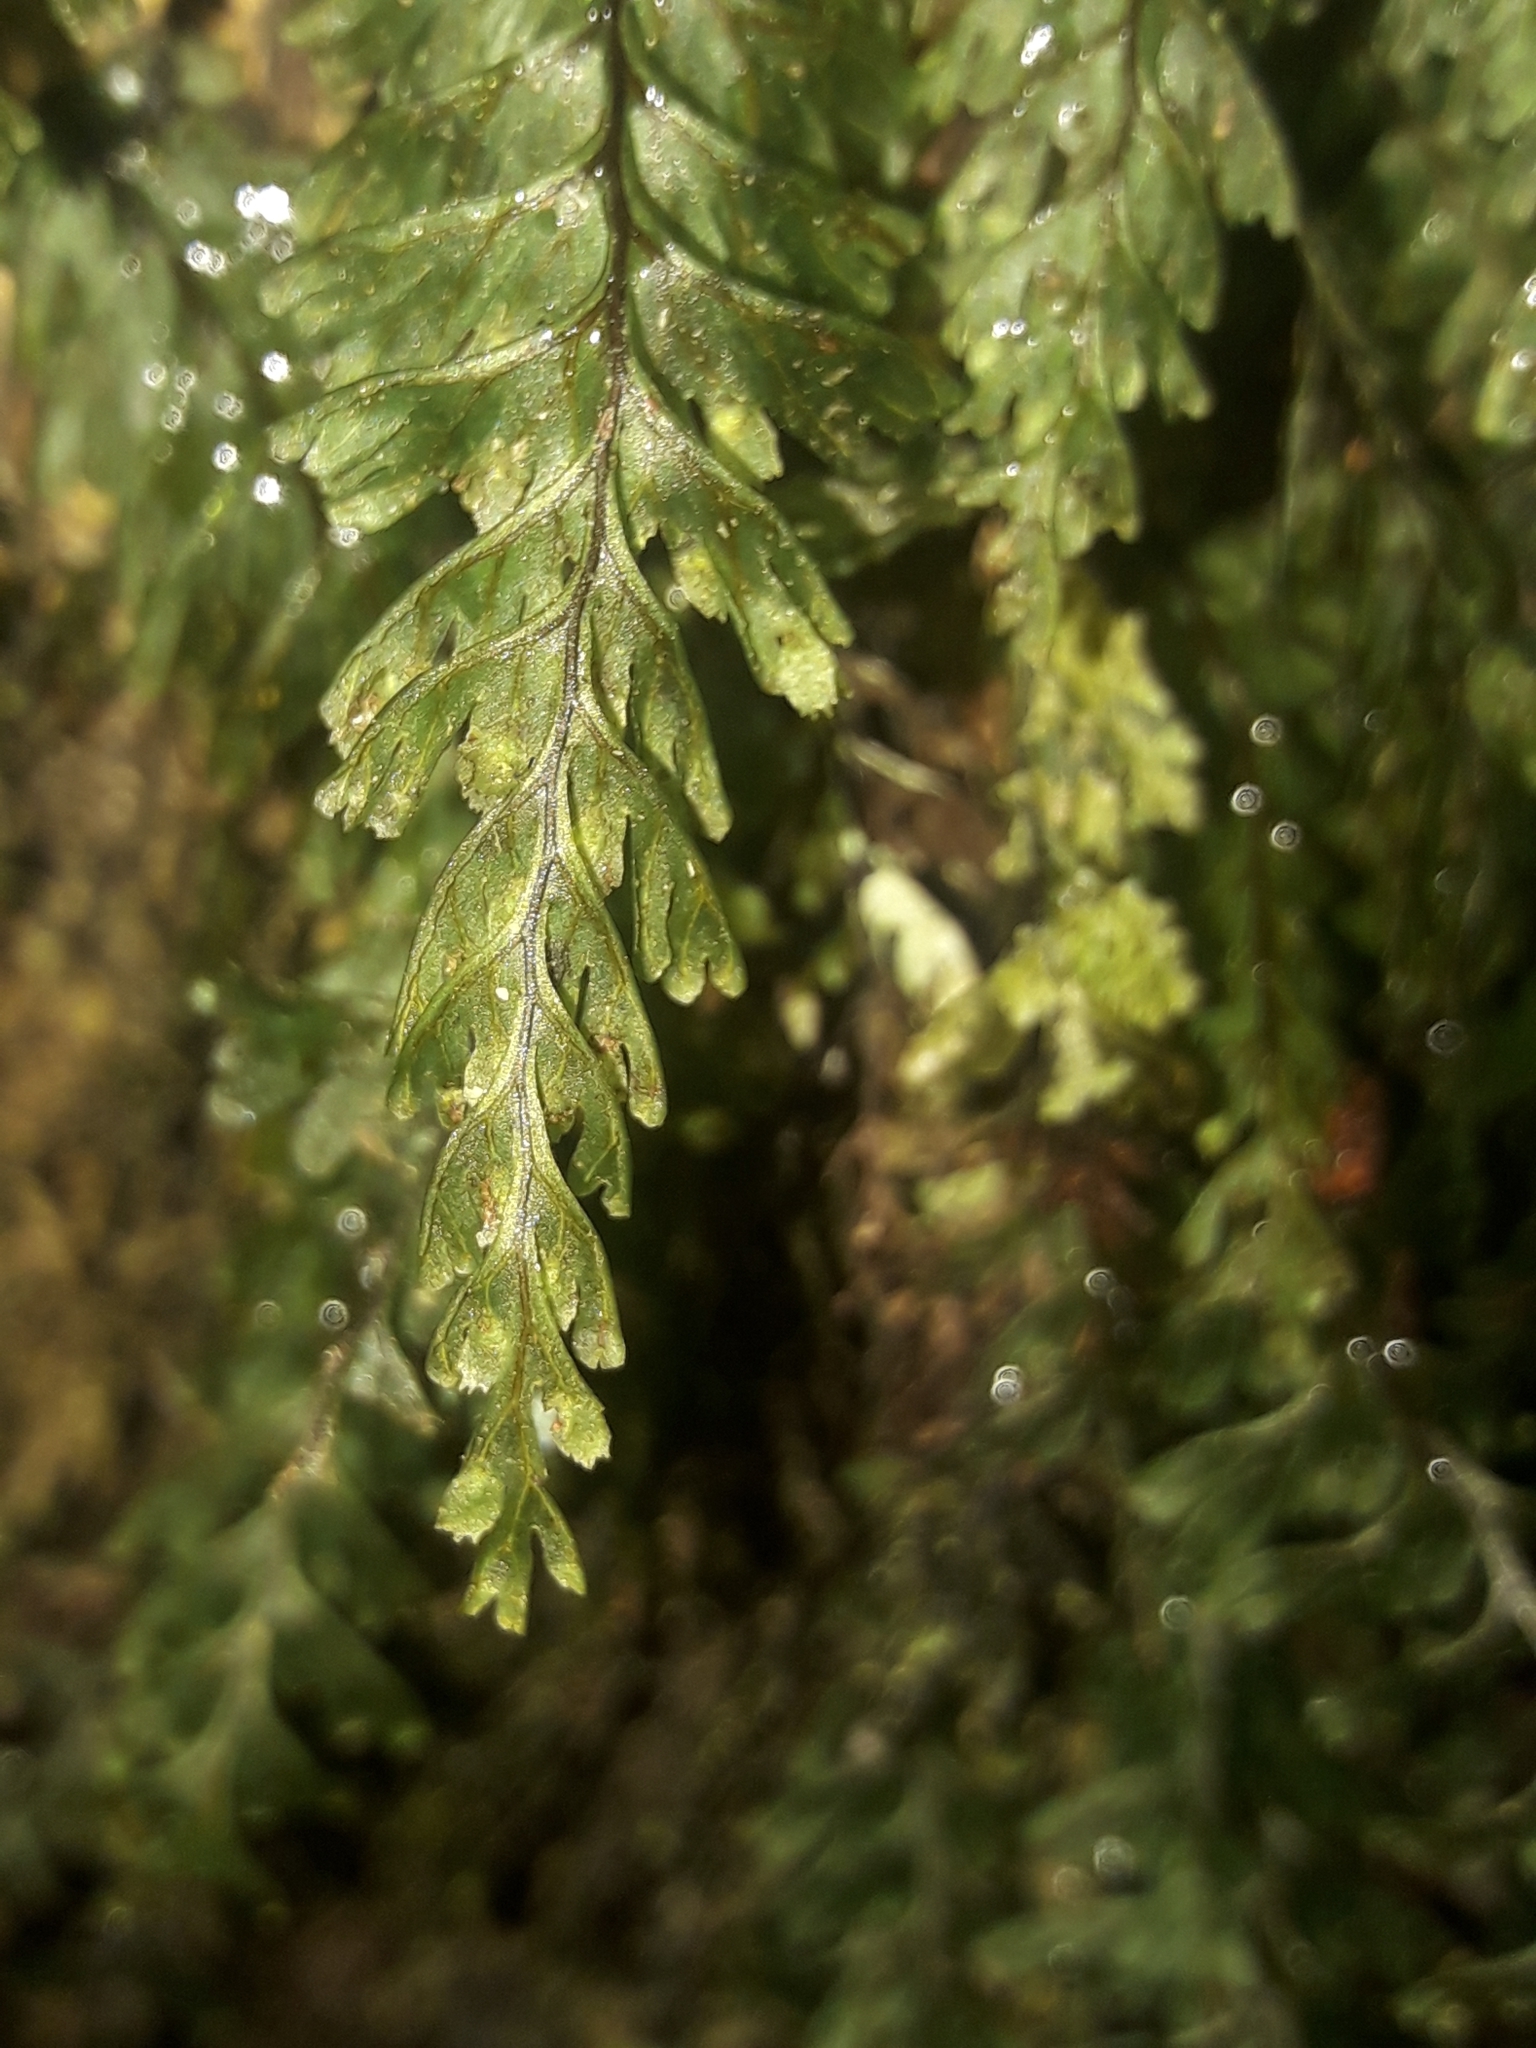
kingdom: Plantae
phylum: Tracheophyta
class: Polypodiopsida
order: Hymenophyllales
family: Hymenophyllaceae
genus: Hymenophyllum
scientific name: Hymenophyllum dimidiatum
